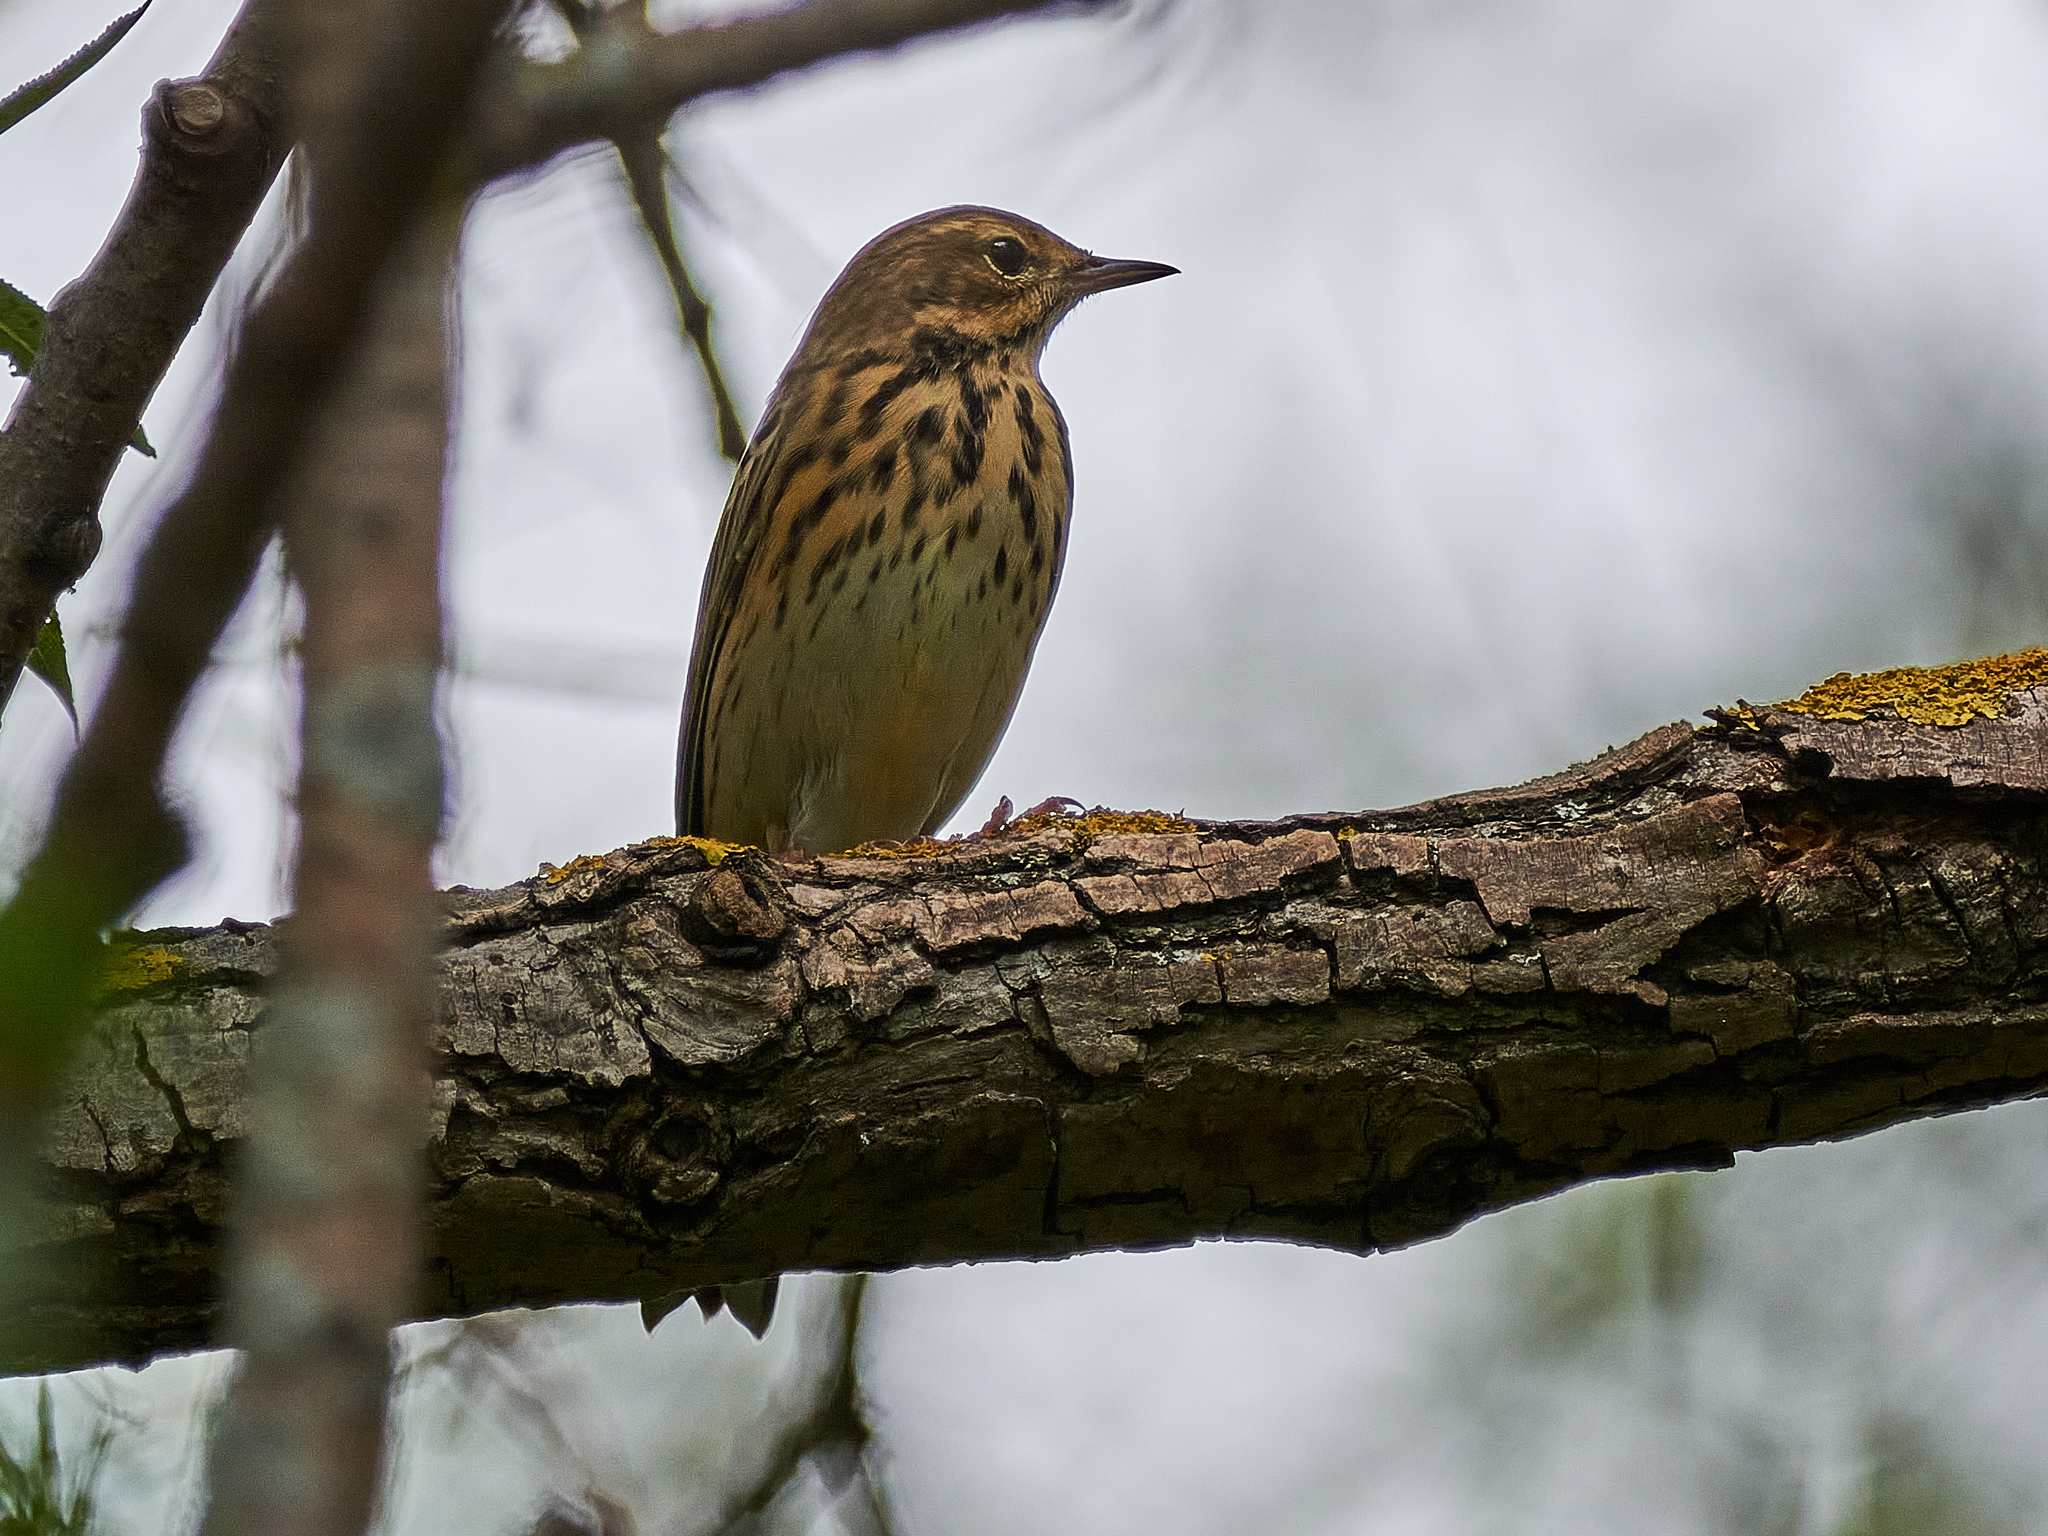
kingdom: Animalia
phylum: Chordata
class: Aves
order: Passeriformes
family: Motacillidae
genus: Anthus
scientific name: Anthus trivialis
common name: Tree pipit
